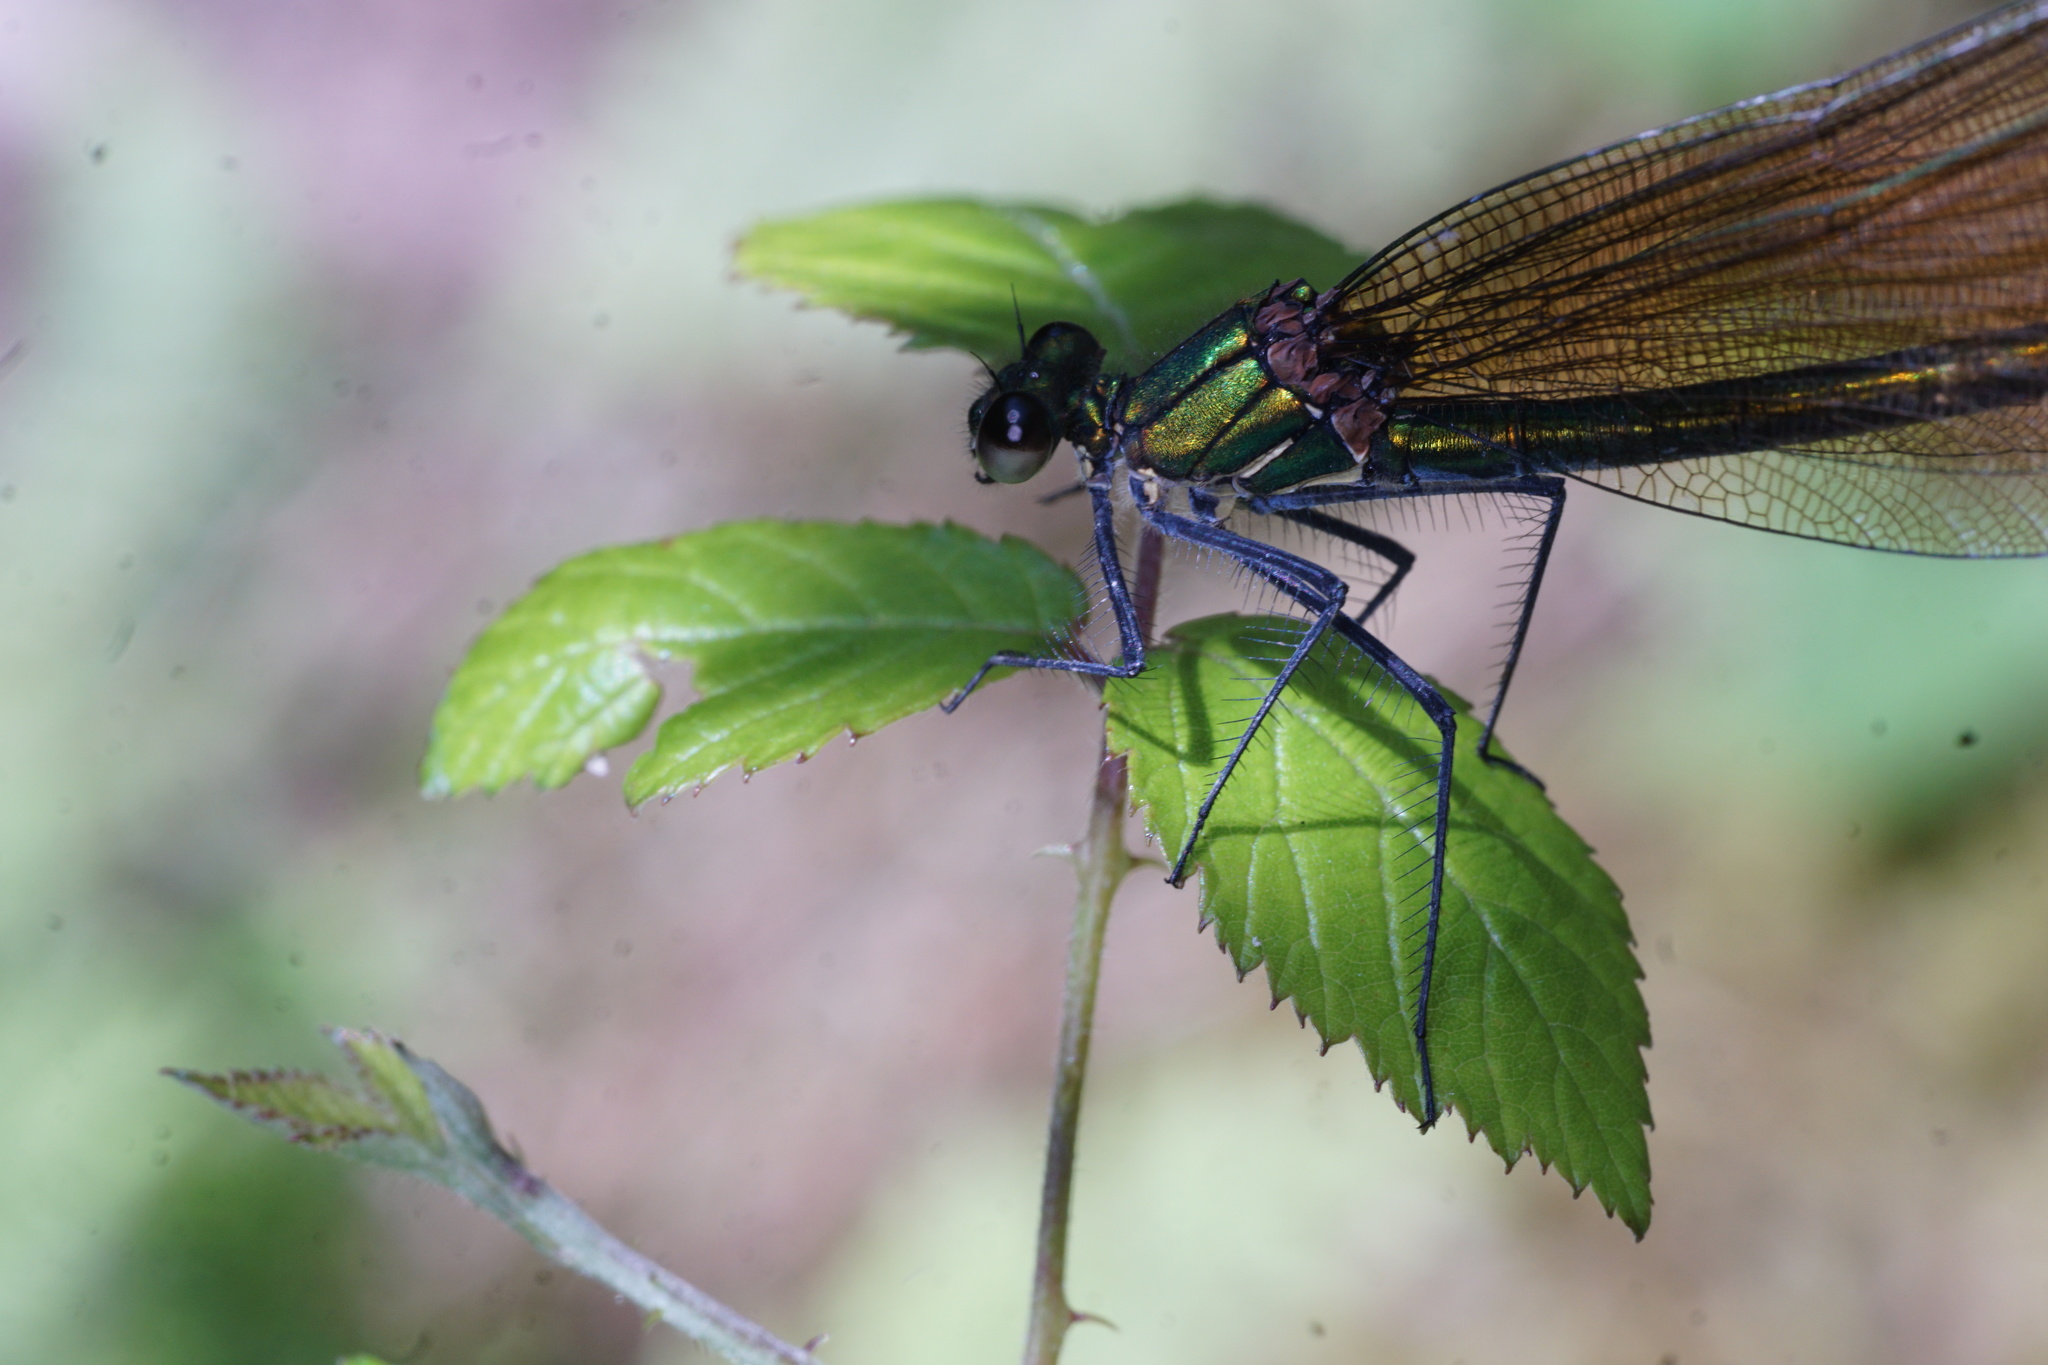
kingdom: Animalia
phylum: Arthropoda
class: Insecta
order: Odonata
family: Calopterygidae
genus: Calopteryx
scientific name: Calopteryx virgo
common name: Beautiful demoiselle
